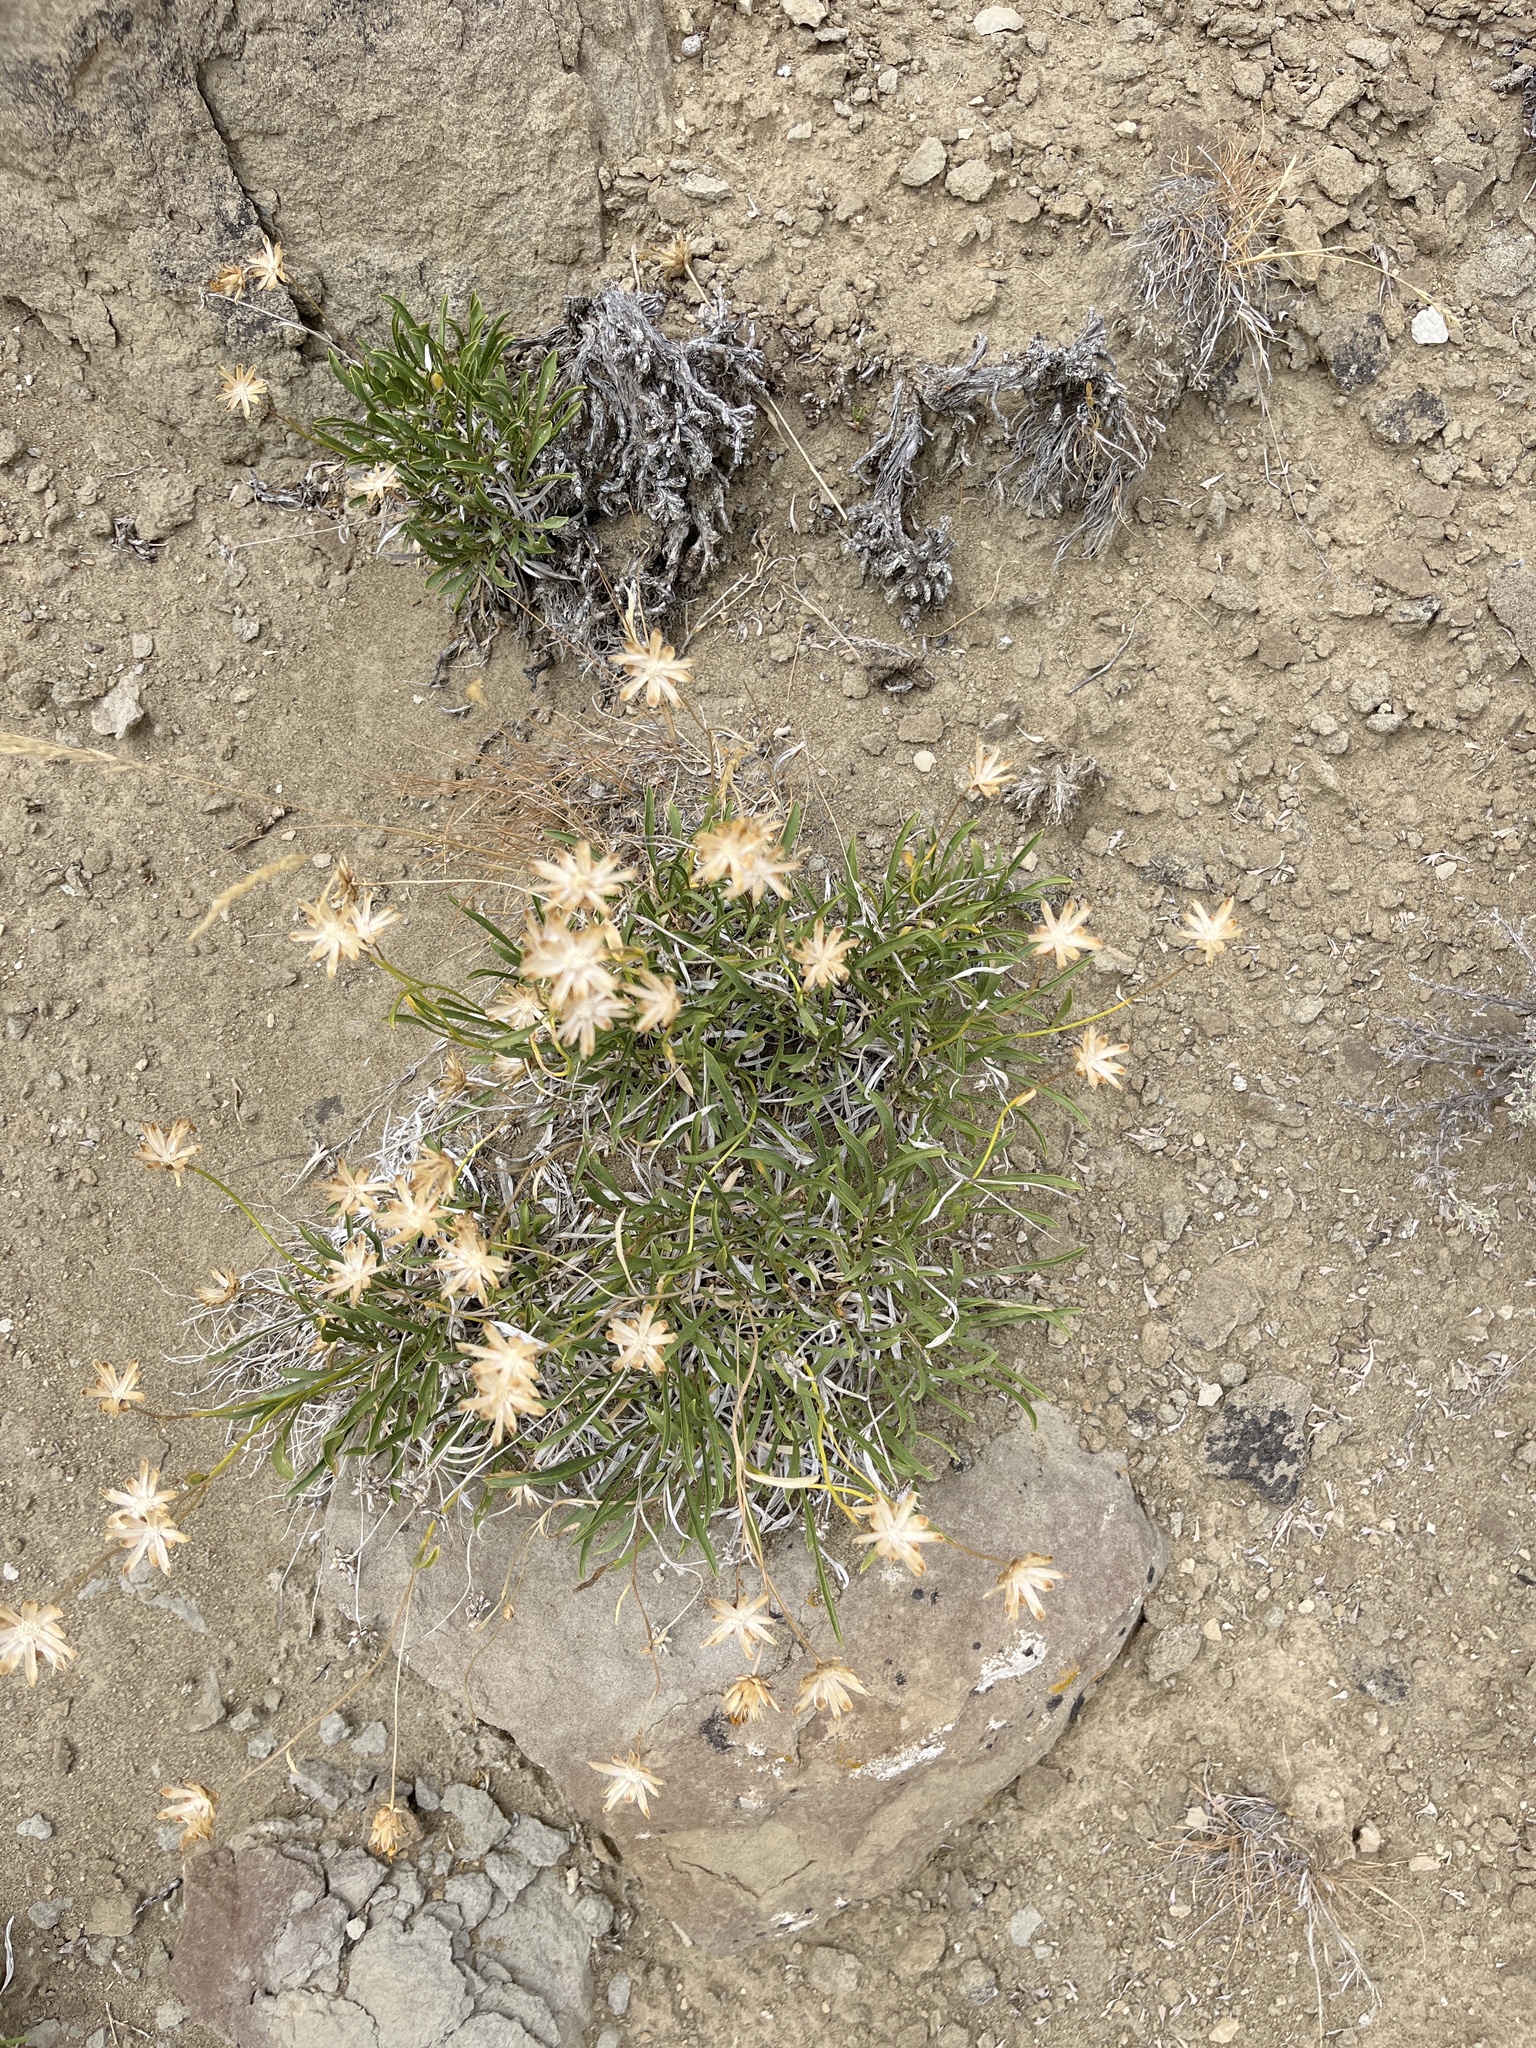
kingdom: Plantae
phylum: Tracheophyta
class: Magnoliopsida
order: Asterales
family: Asteraceae
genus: Stenotus
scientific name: Stenotus armerioides
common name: Thrifty goldenweed
